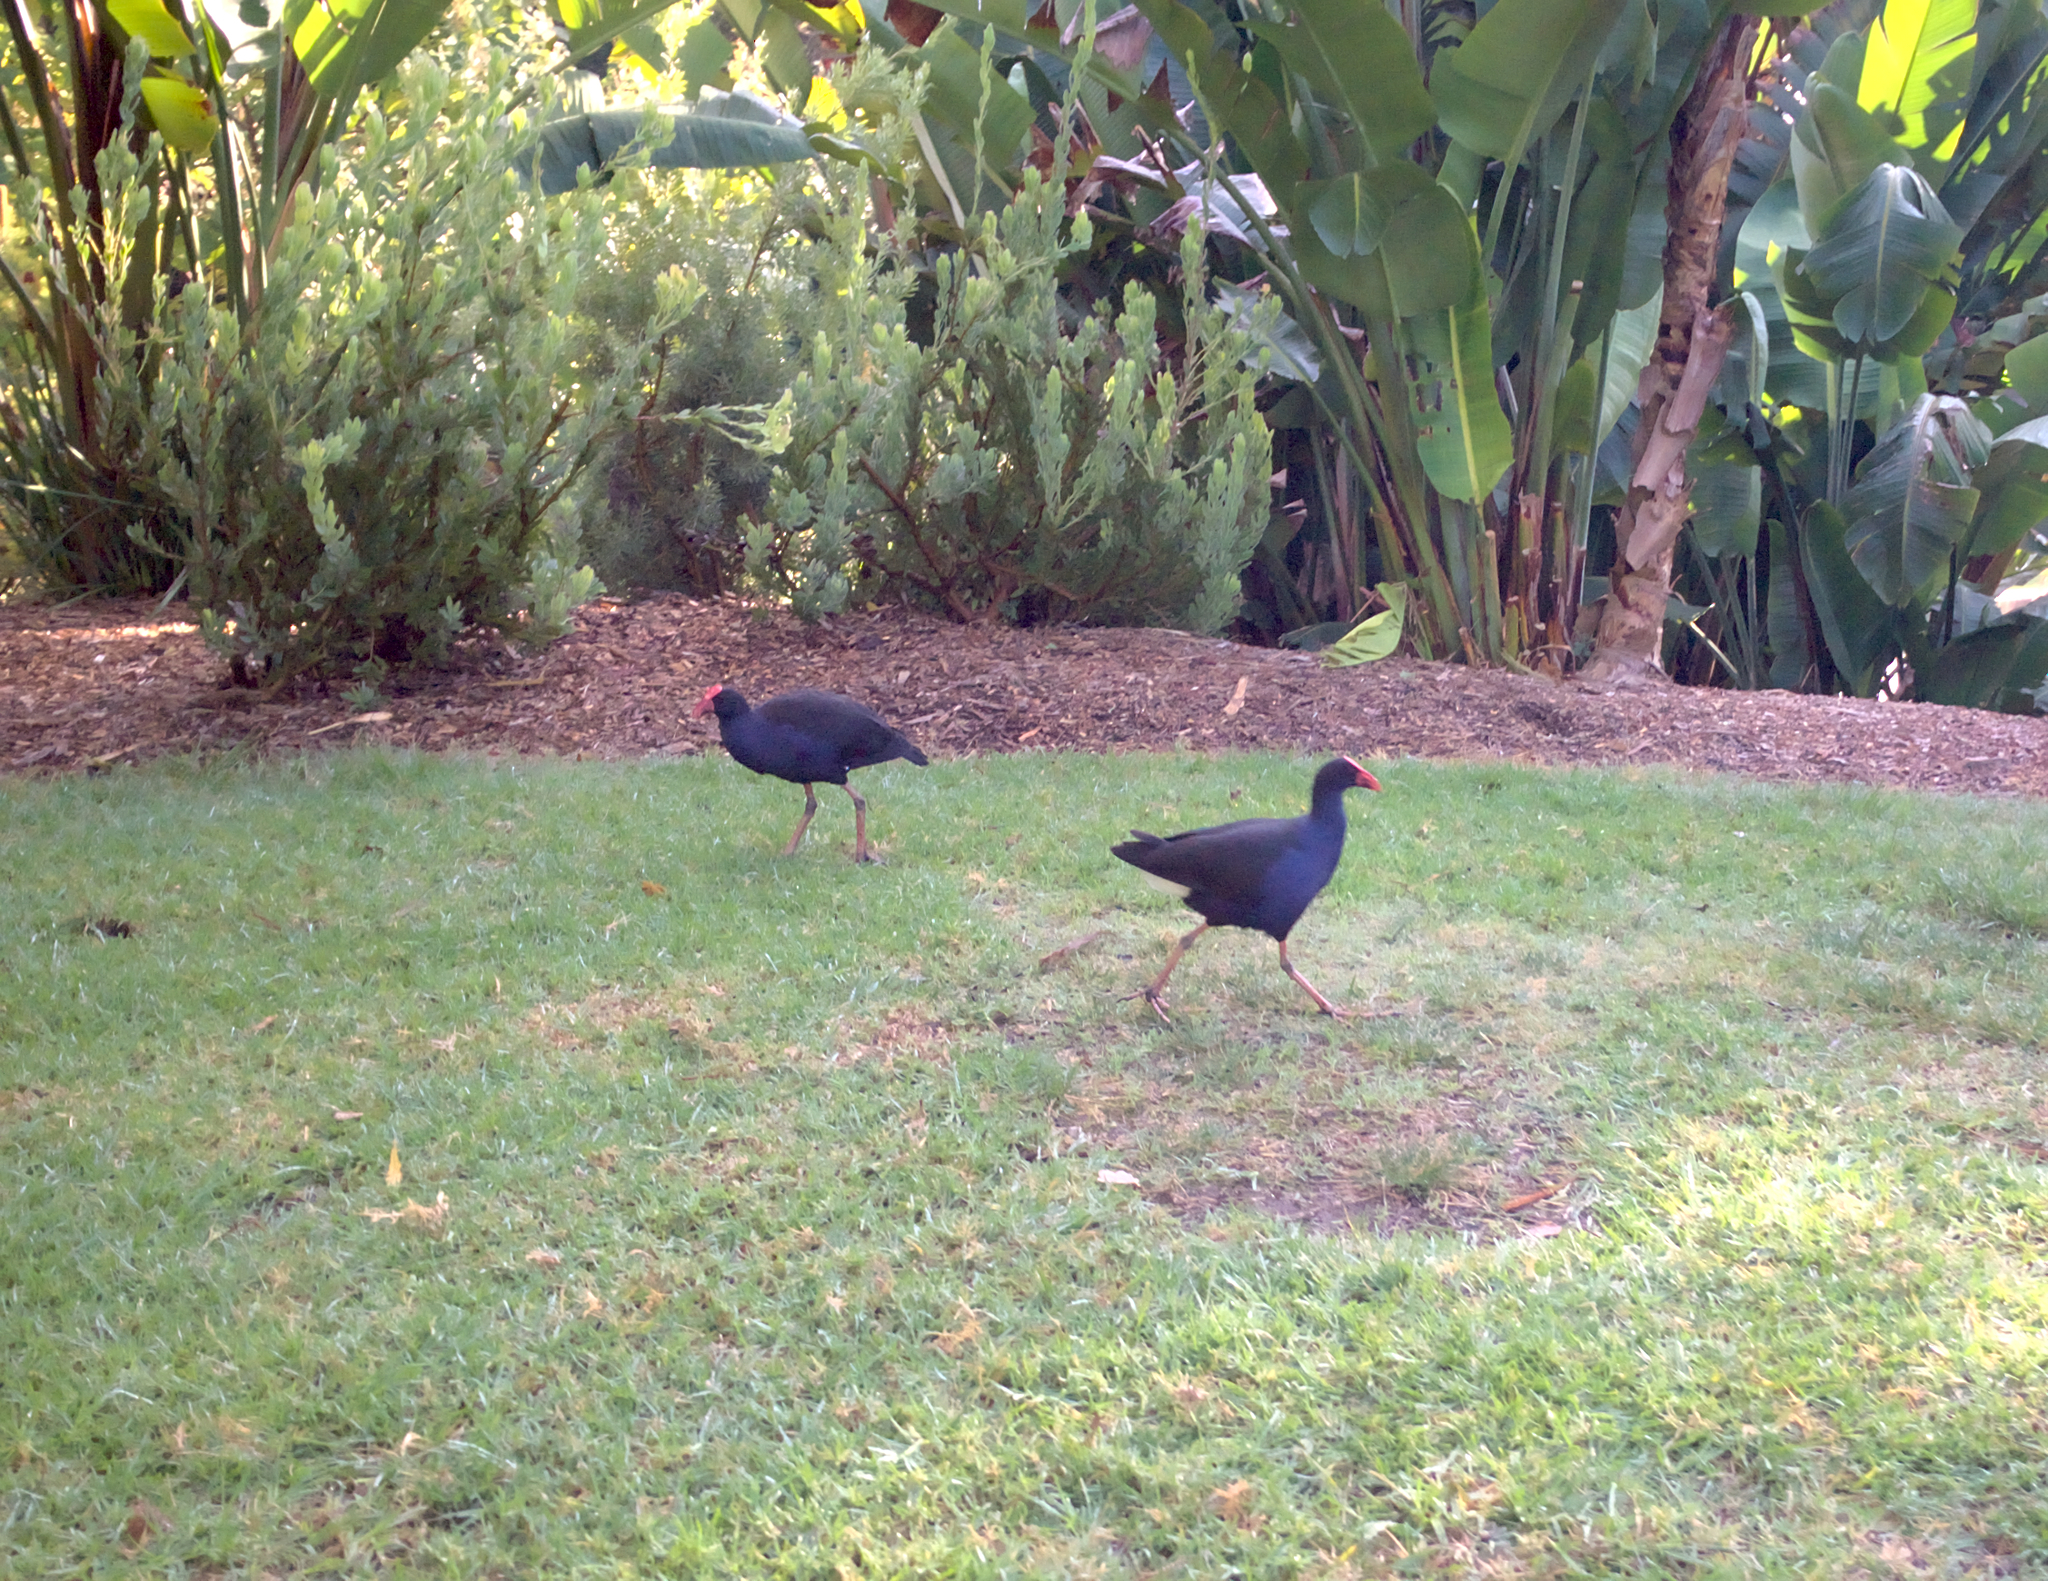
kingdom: Animalia
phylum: Chordata
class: Aves
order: Gruiformes
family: Rallidae
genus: Porphyrio
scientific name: Porphyrio melanotus
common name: Australasian swamphen
